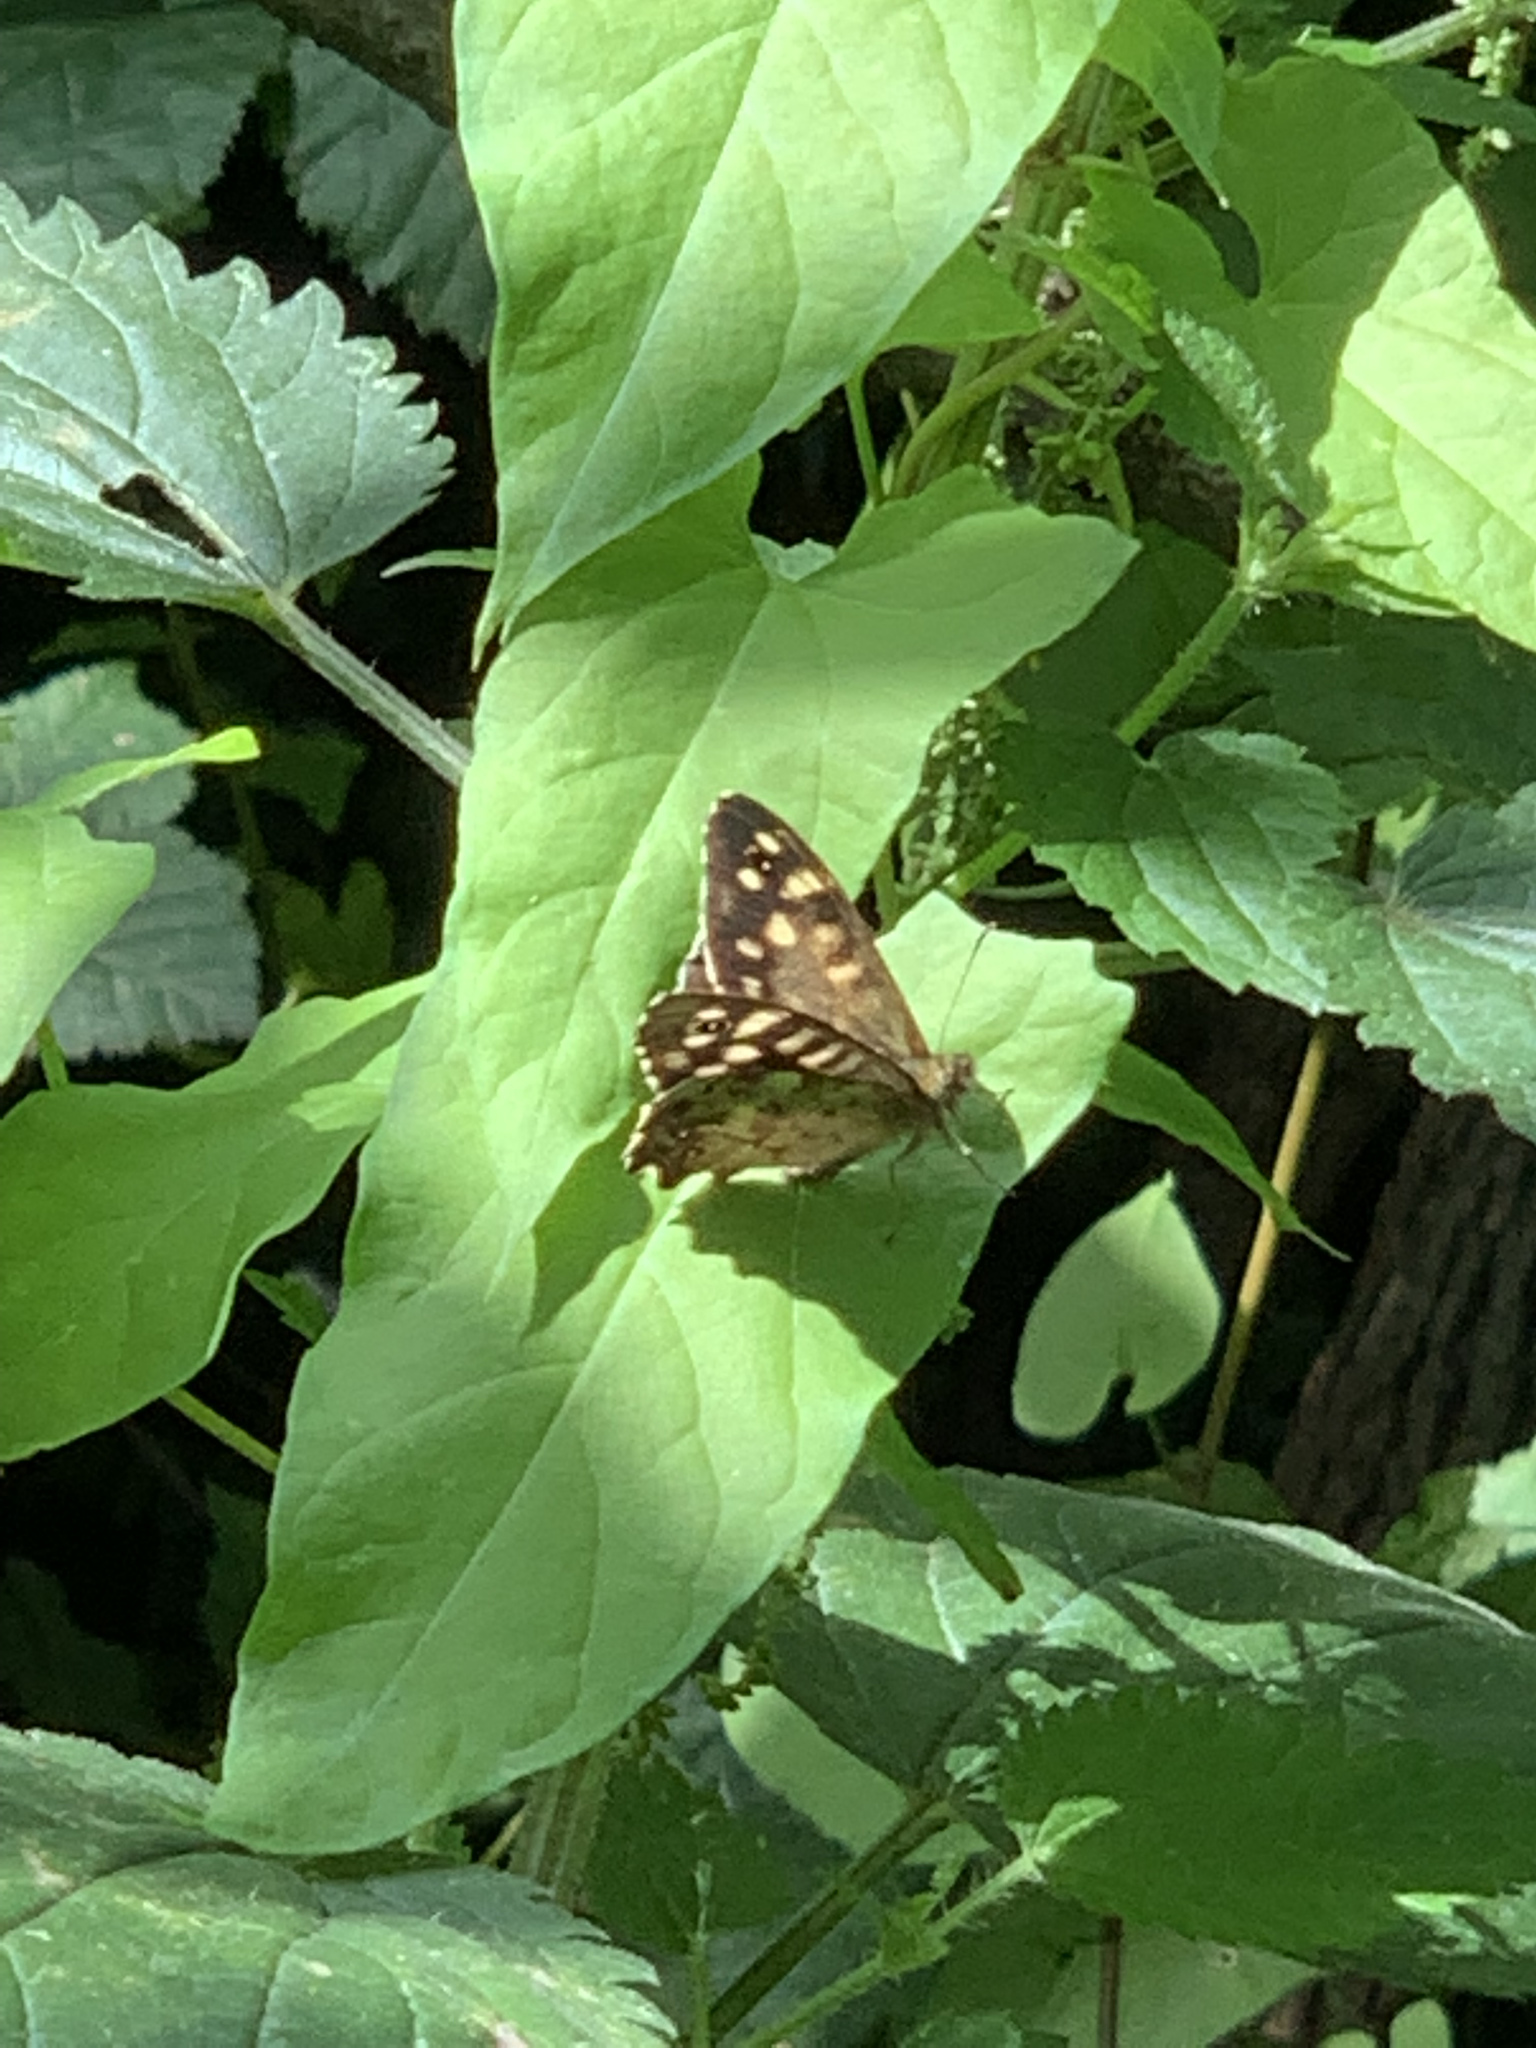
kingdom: Animalia
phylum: Arthropoda
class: Insecta
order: Lepidoptera
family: Nymphalidae
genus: Pararge
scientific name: Pararge aegeria
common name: Speckled wood
